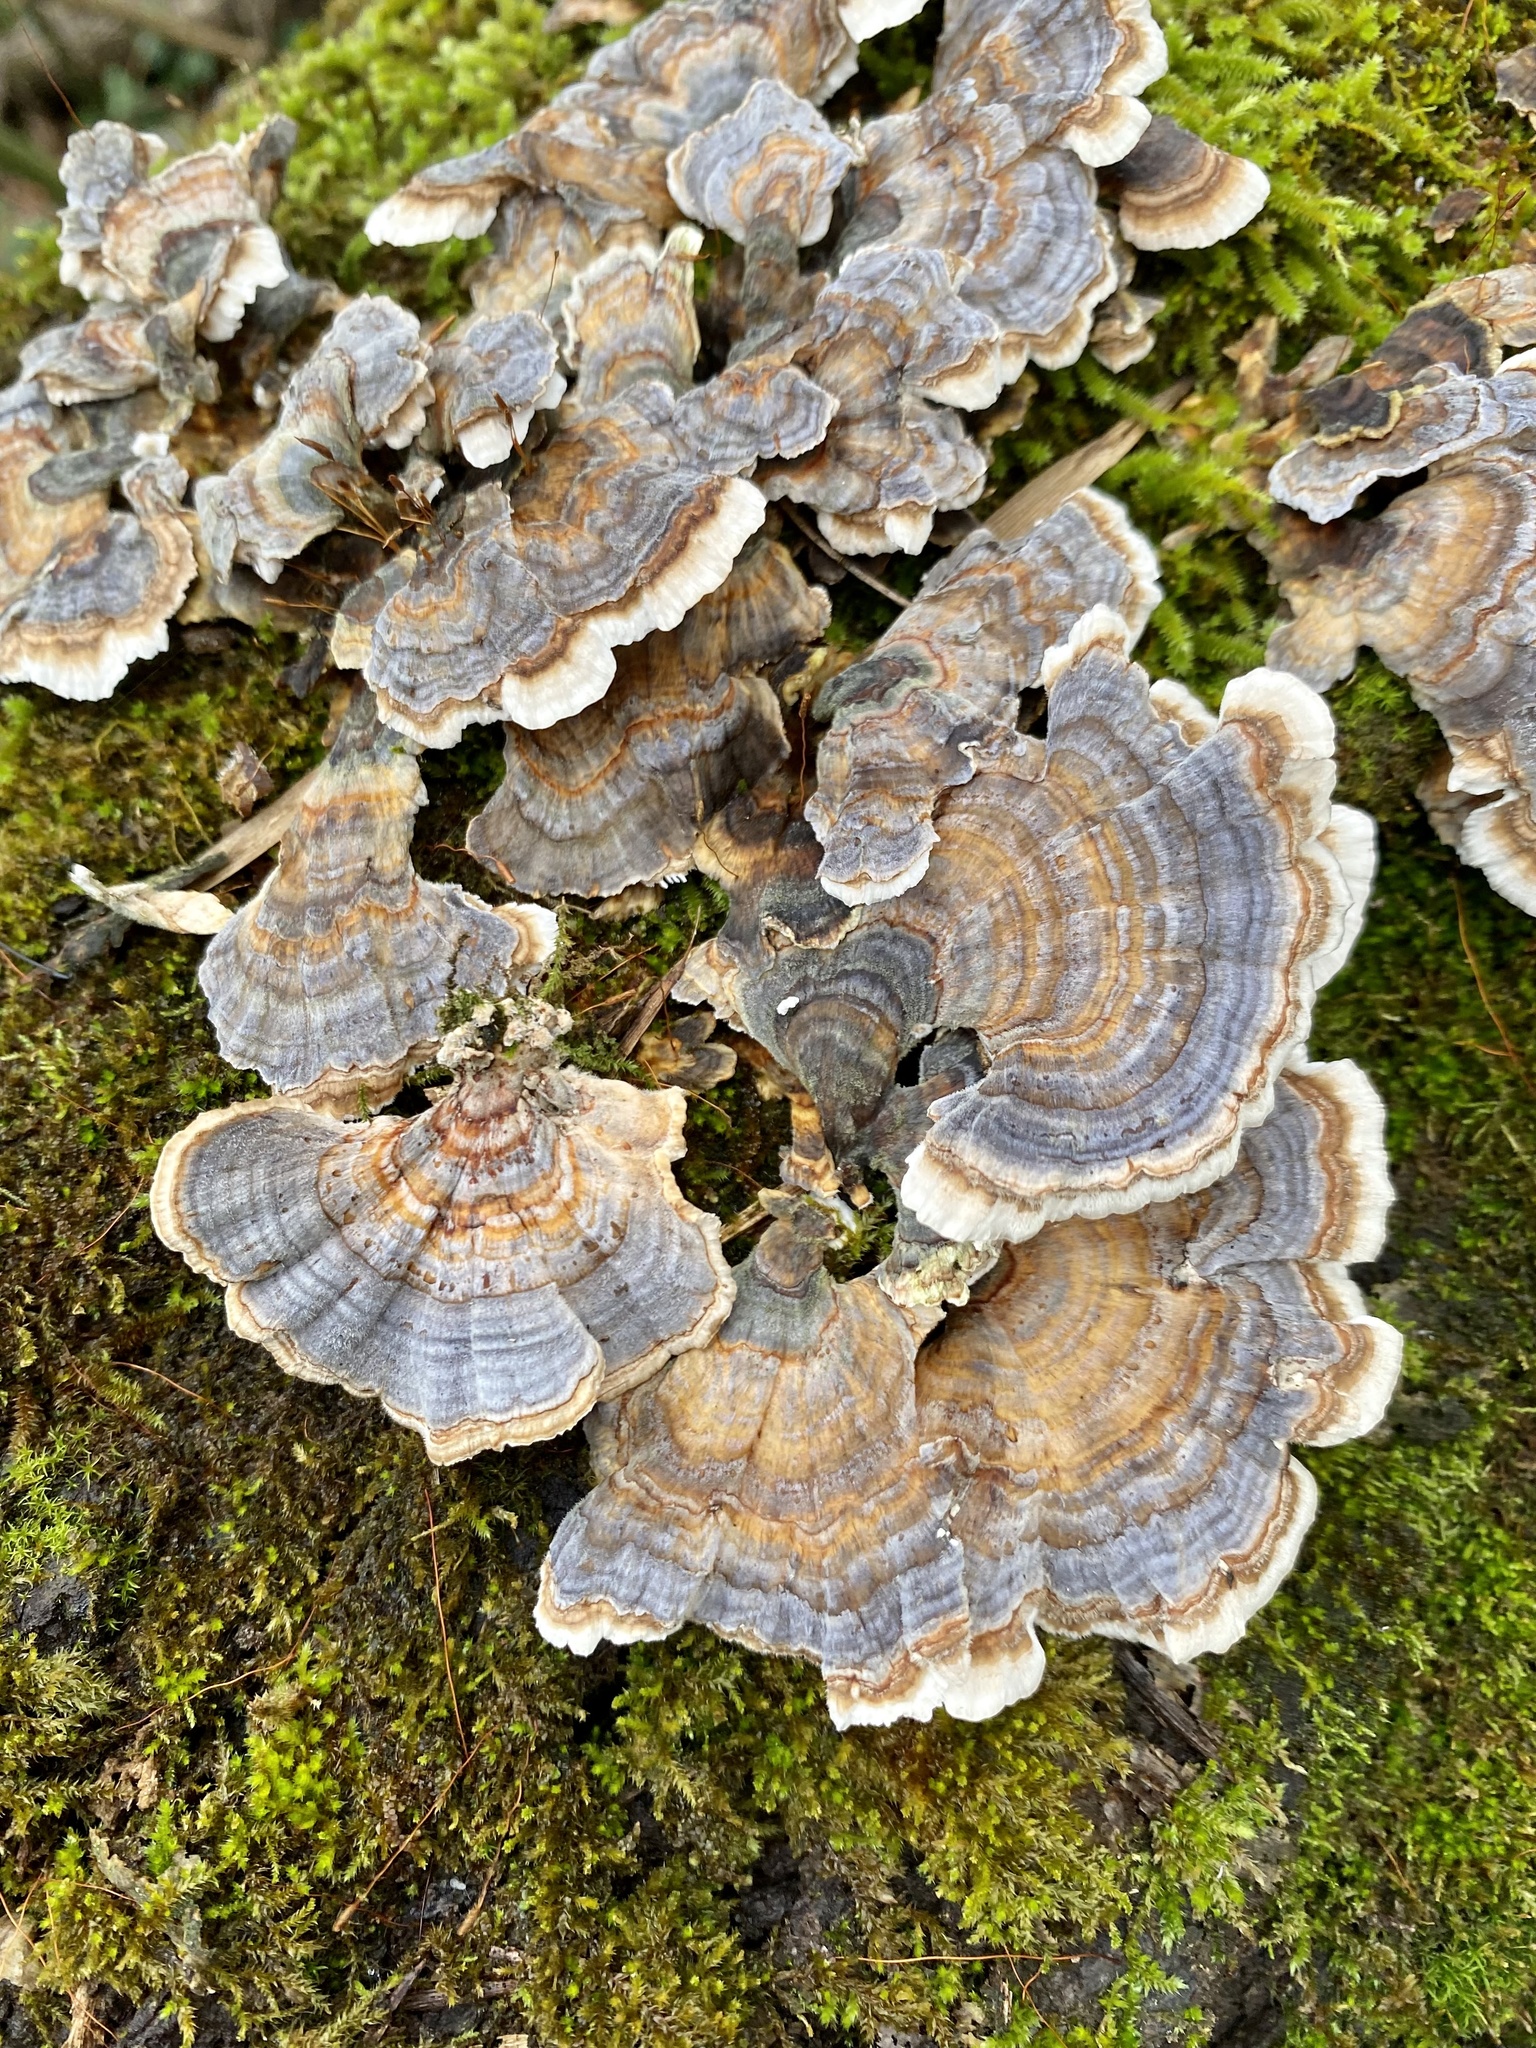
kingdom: Fungi
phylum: Basidiomycota
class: Agaricomycetes
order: Polyporales
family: Polyporaceae
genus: Trametes
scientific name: Trametes versicolor
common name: Turkeytail
